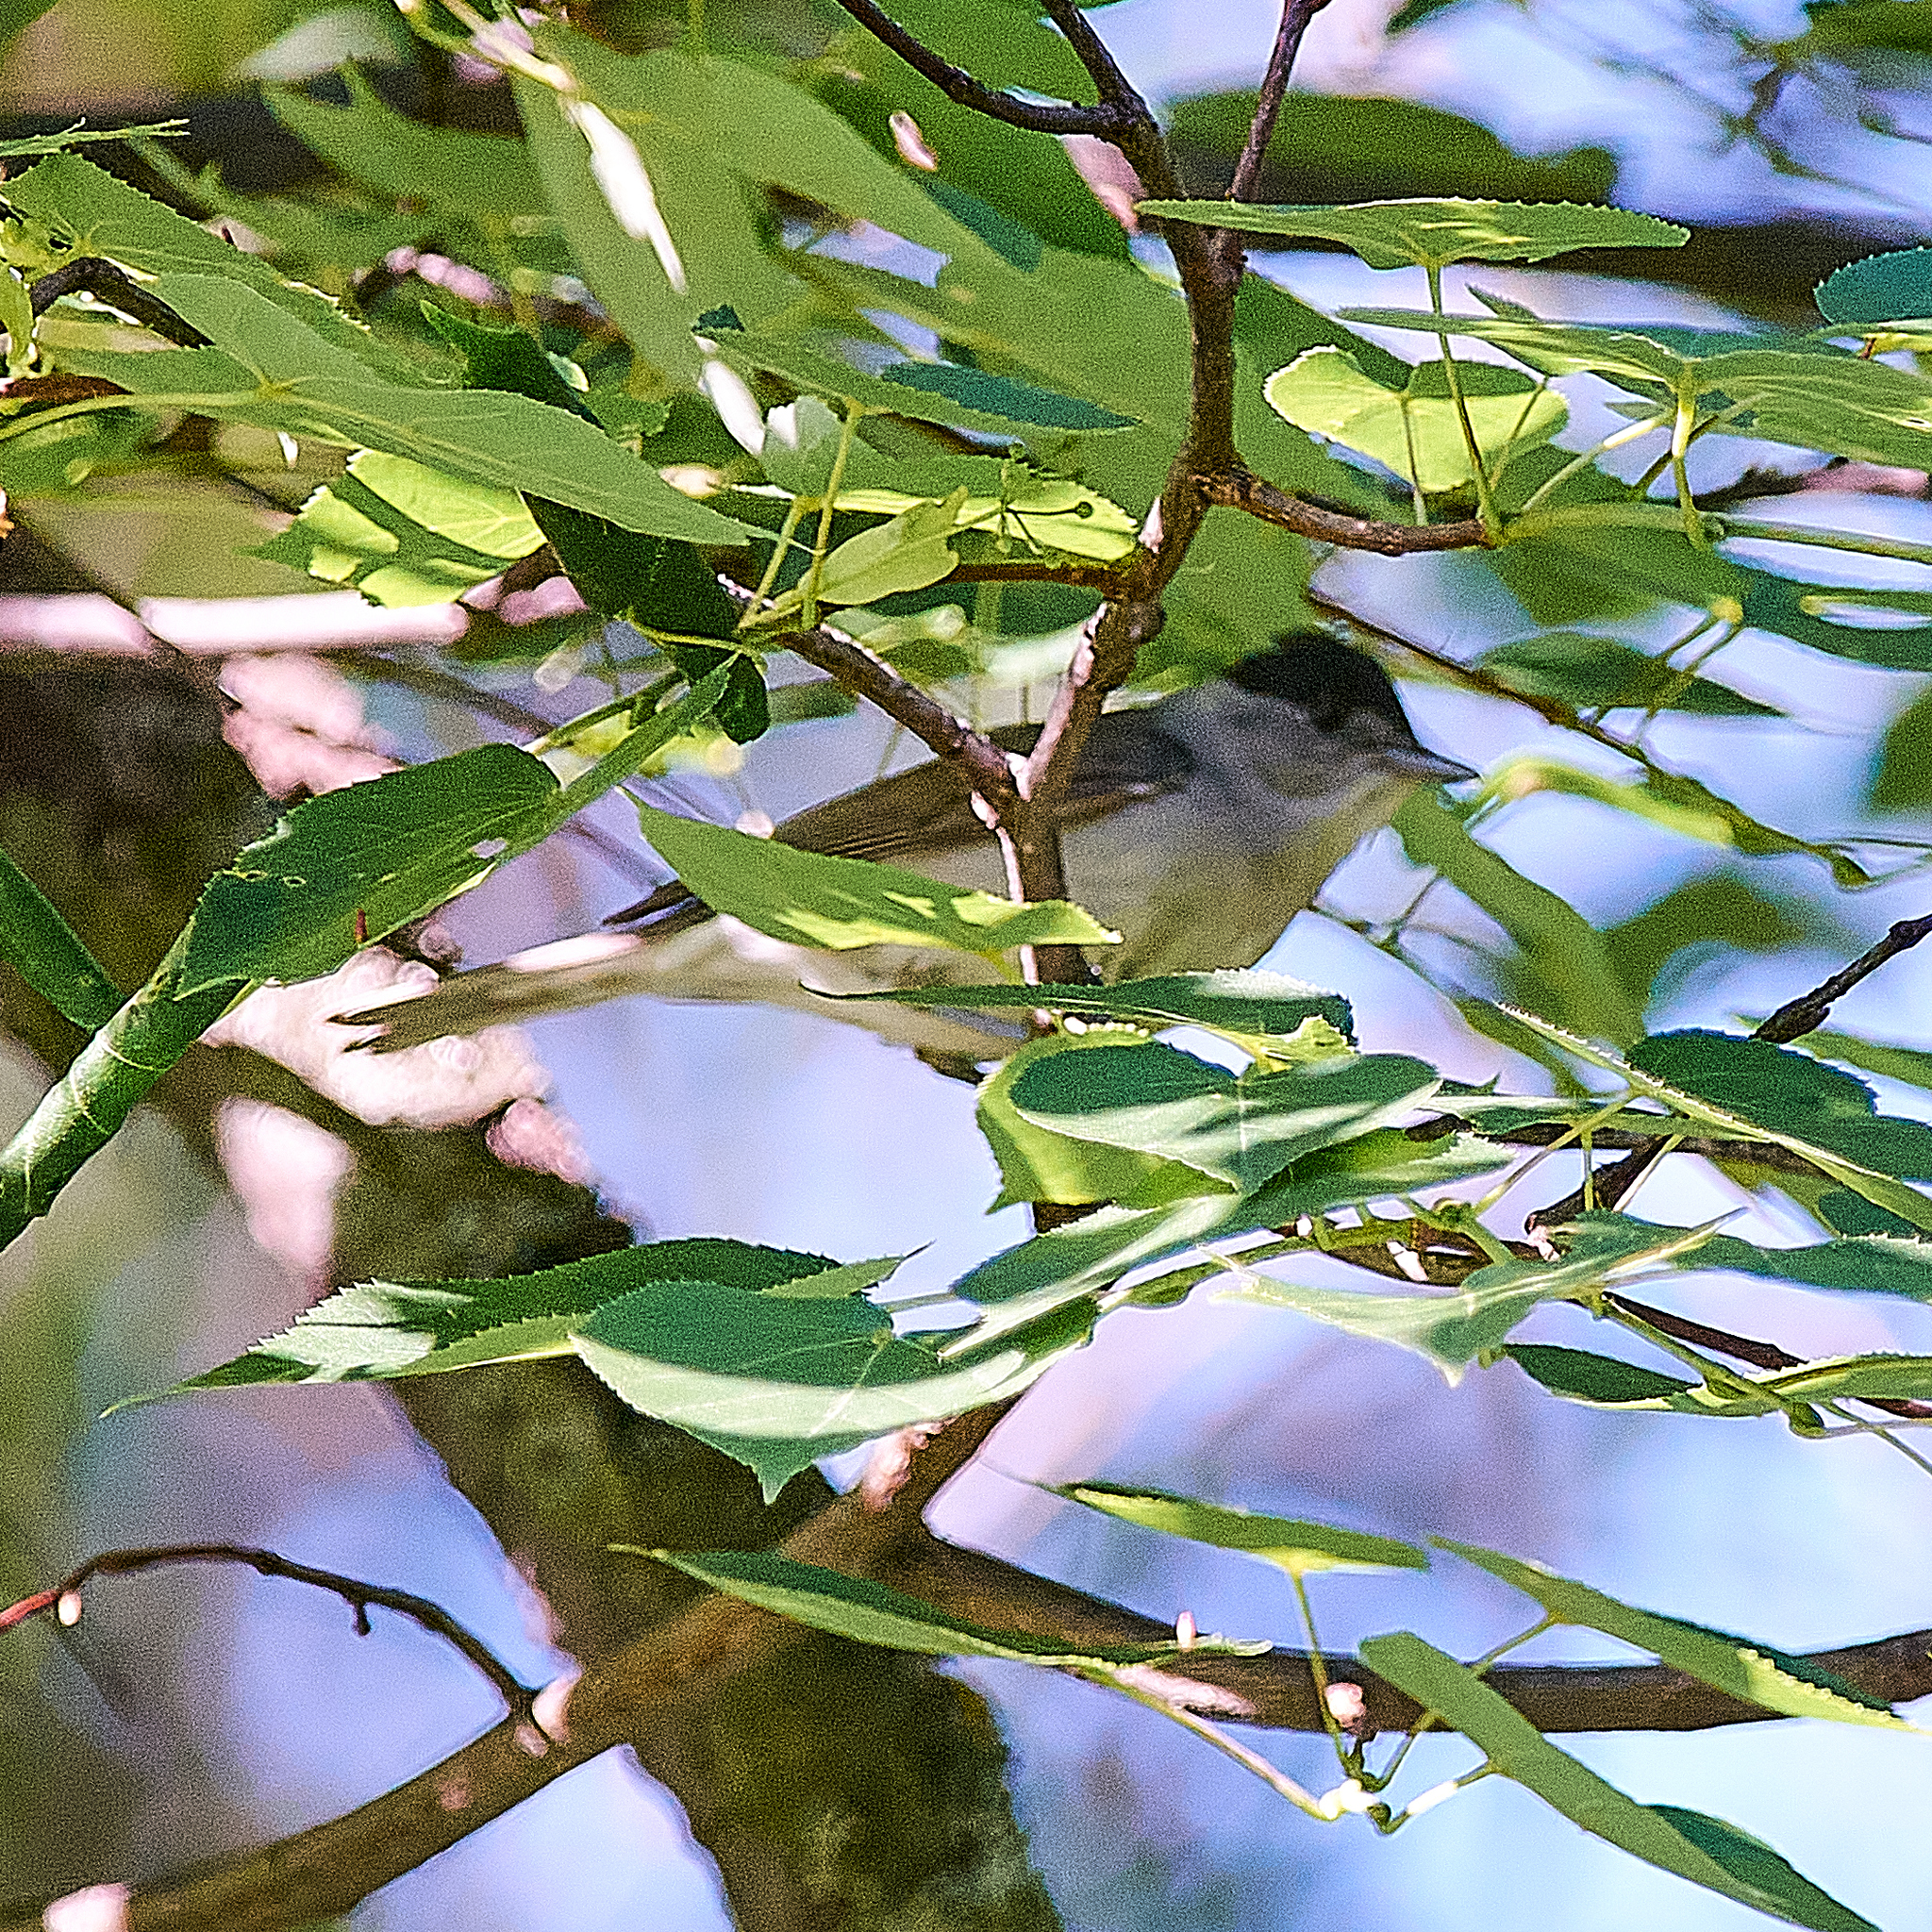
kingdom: Animalia
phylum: Chordata
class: Aves
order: Passeriformes
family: Sylviidae
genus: Sylvia
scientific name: Sylvia atricapilla
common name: Eurasian blackcap
